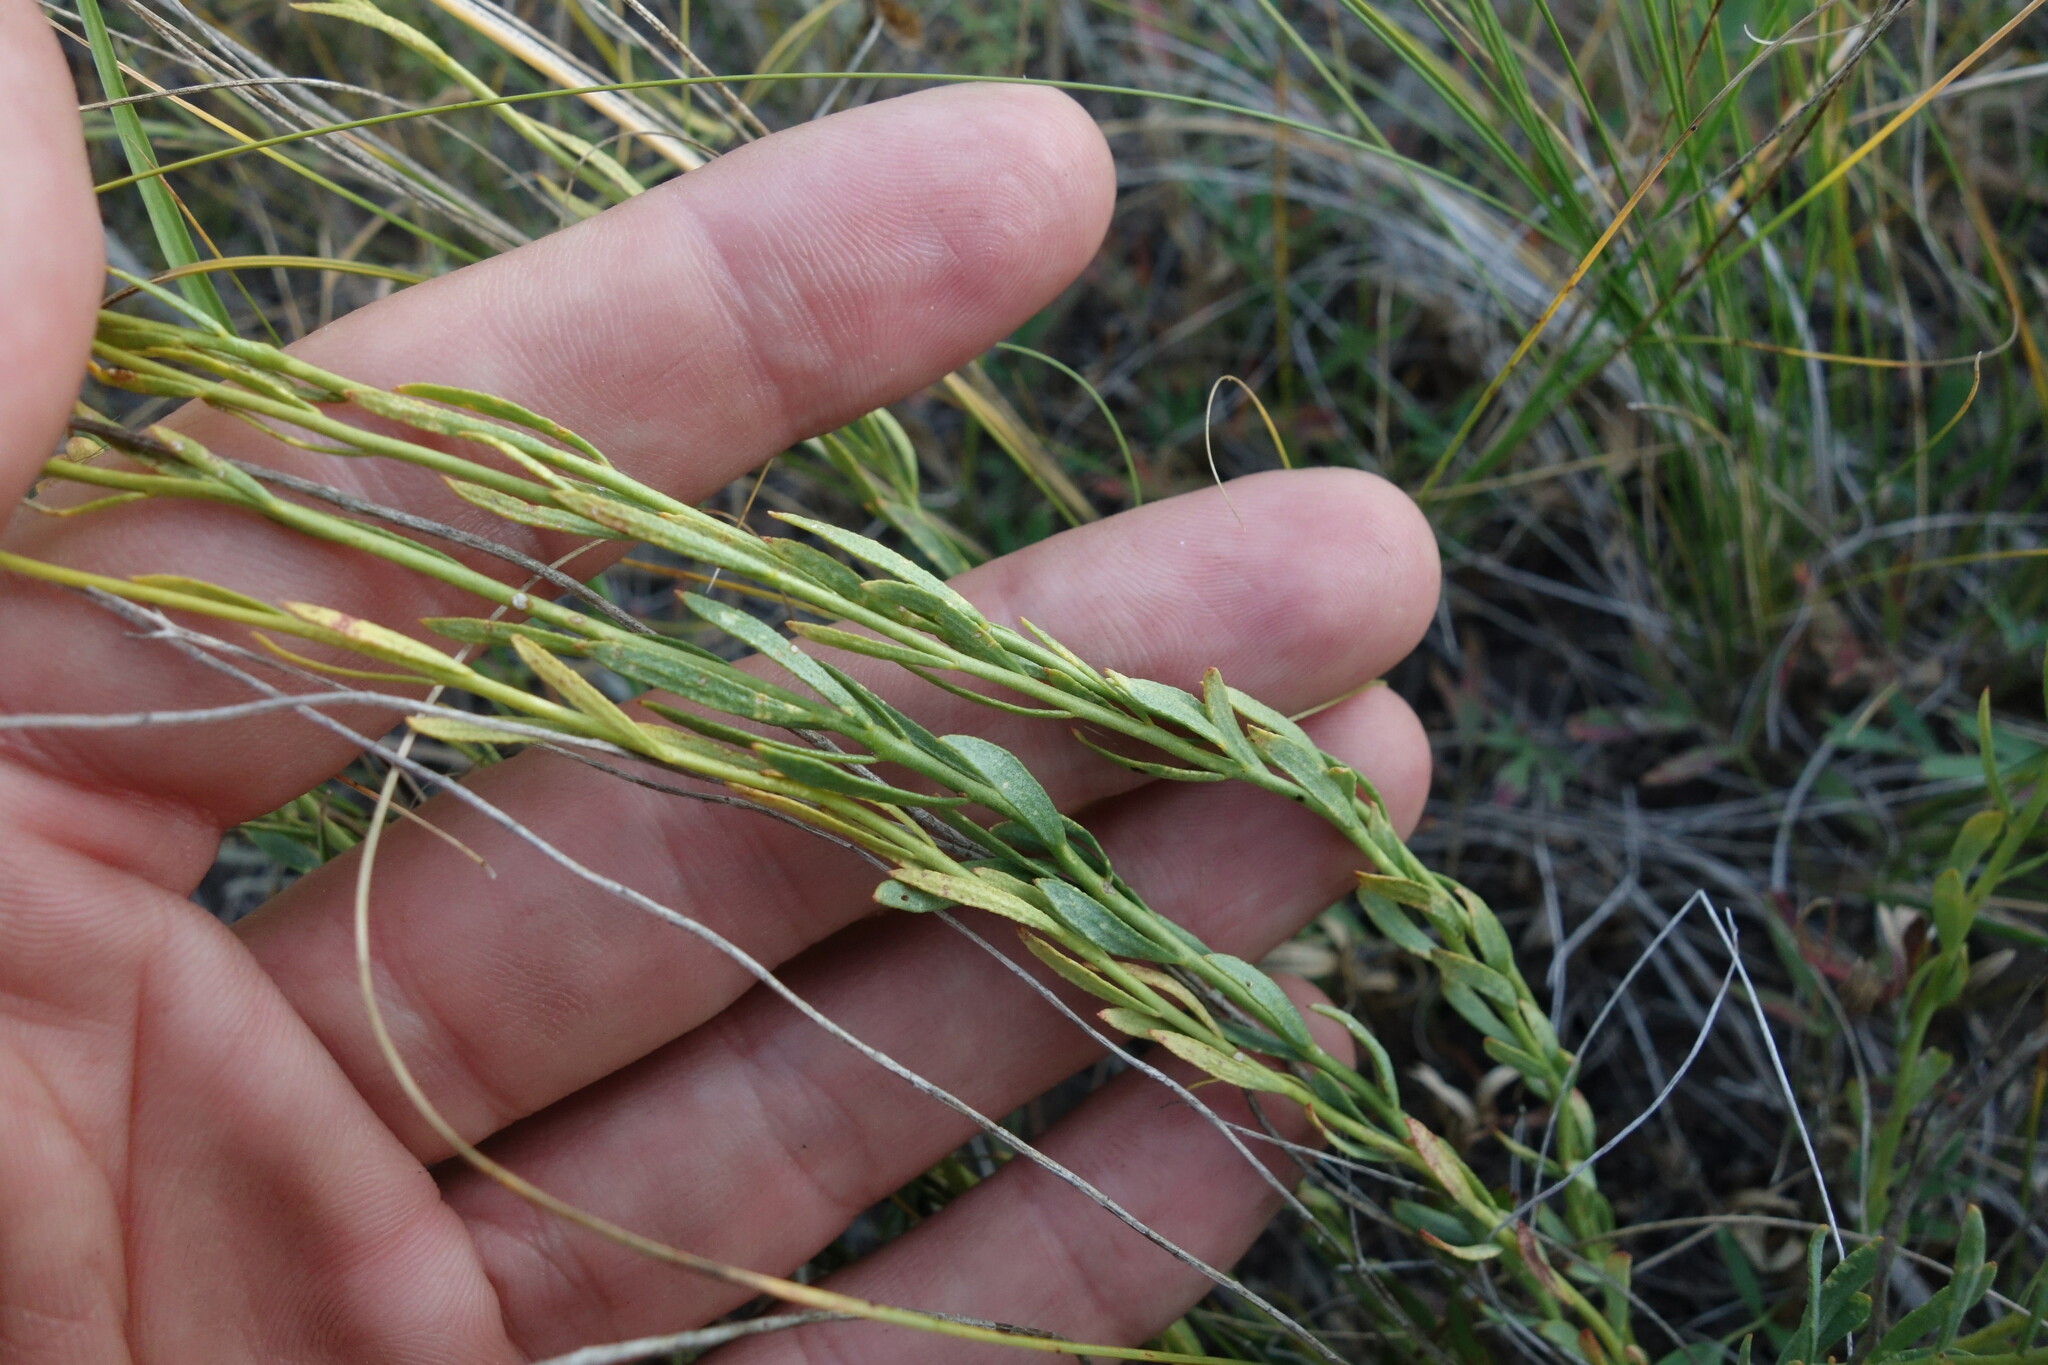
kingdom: Plantae
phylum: Tracheophyta
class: Magnoliopsida
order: Sapindales
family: Rutaceae
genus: Haplophyllum
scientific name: Haplophyllum dauricum
